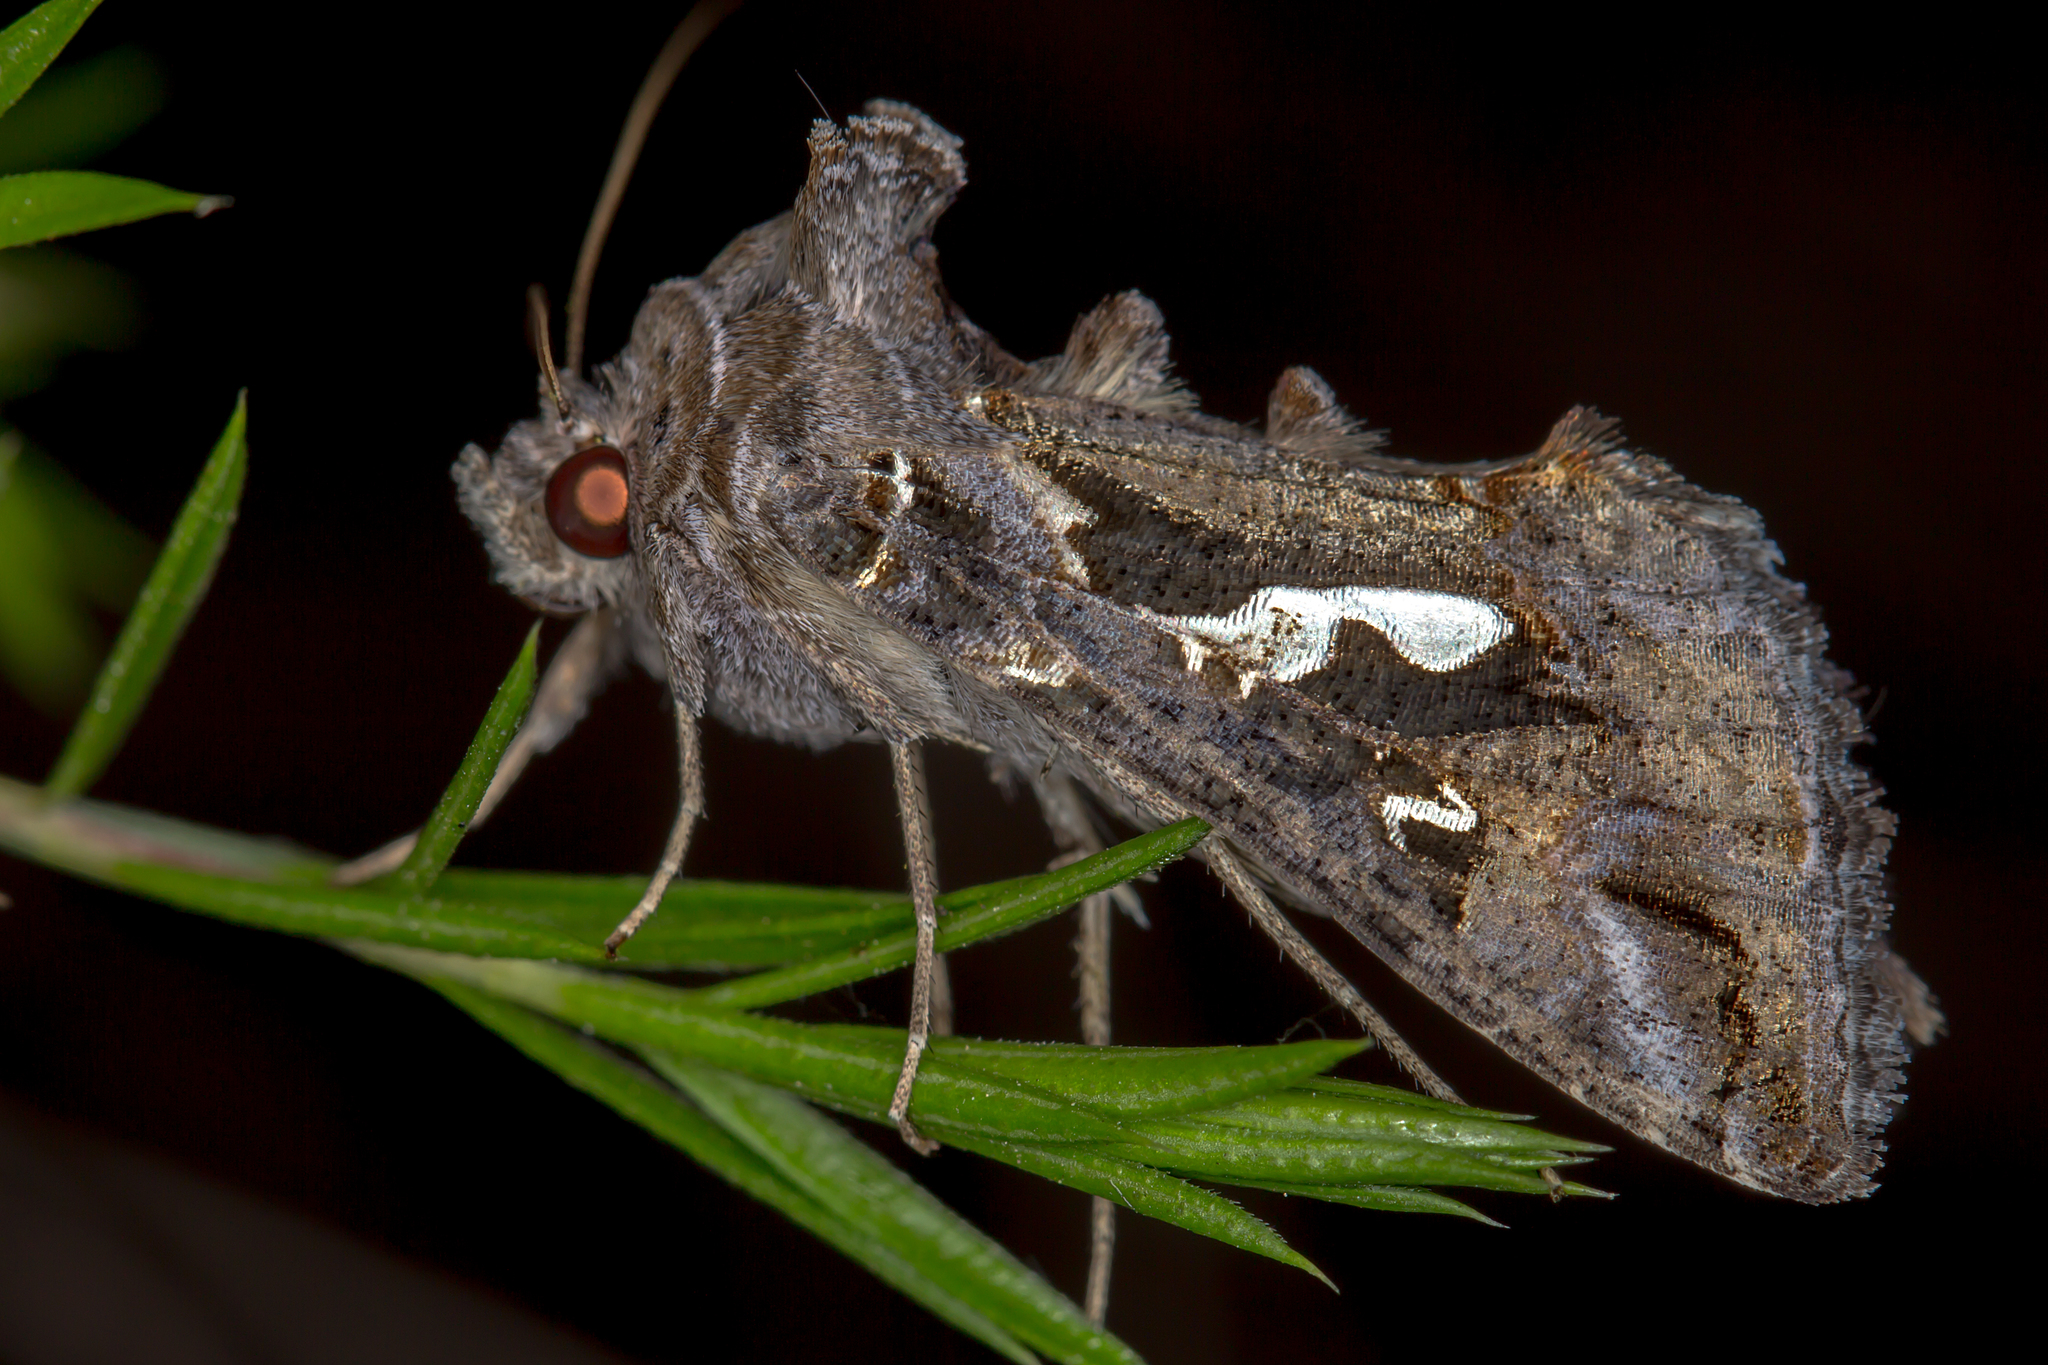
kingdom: Animalia
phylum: Arthropoda
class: Insecta
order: Lepidoptera
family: Noctuidae
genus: Chrysodeixis
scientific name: Chrysodeixis argentifera
